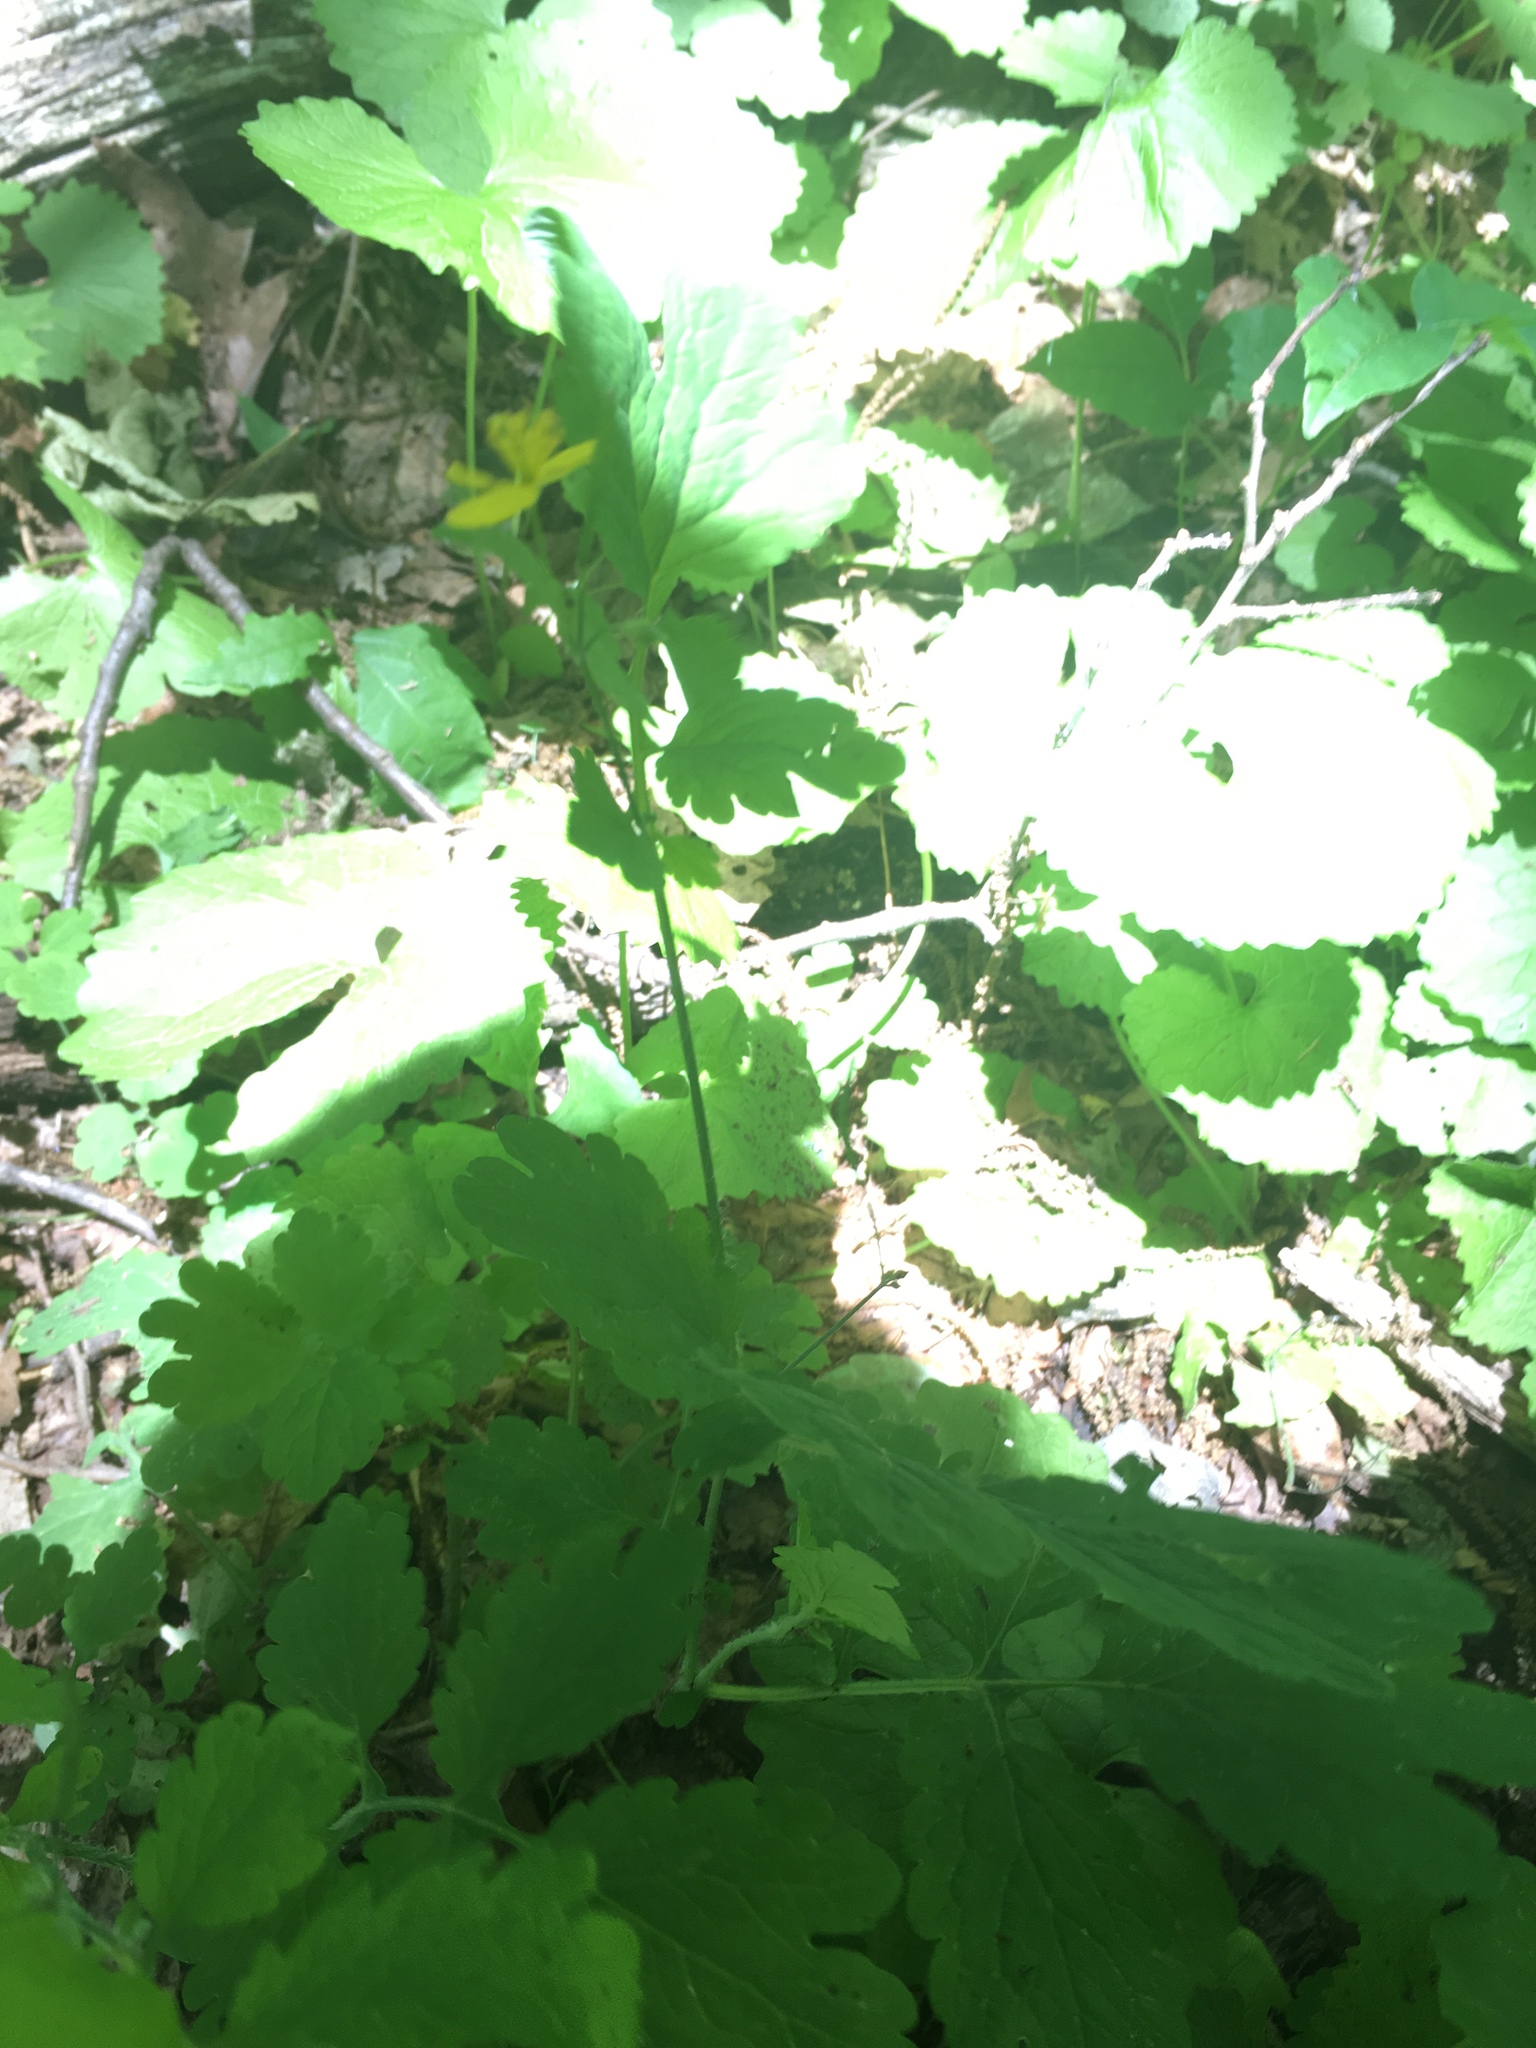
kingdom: Plantae
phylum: Tracheophyta
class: Magnoliopsida
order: Ranunculales
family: Papaveraceae
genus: Chelidonium
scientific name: Chelidonium majus
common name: Greater celandine
